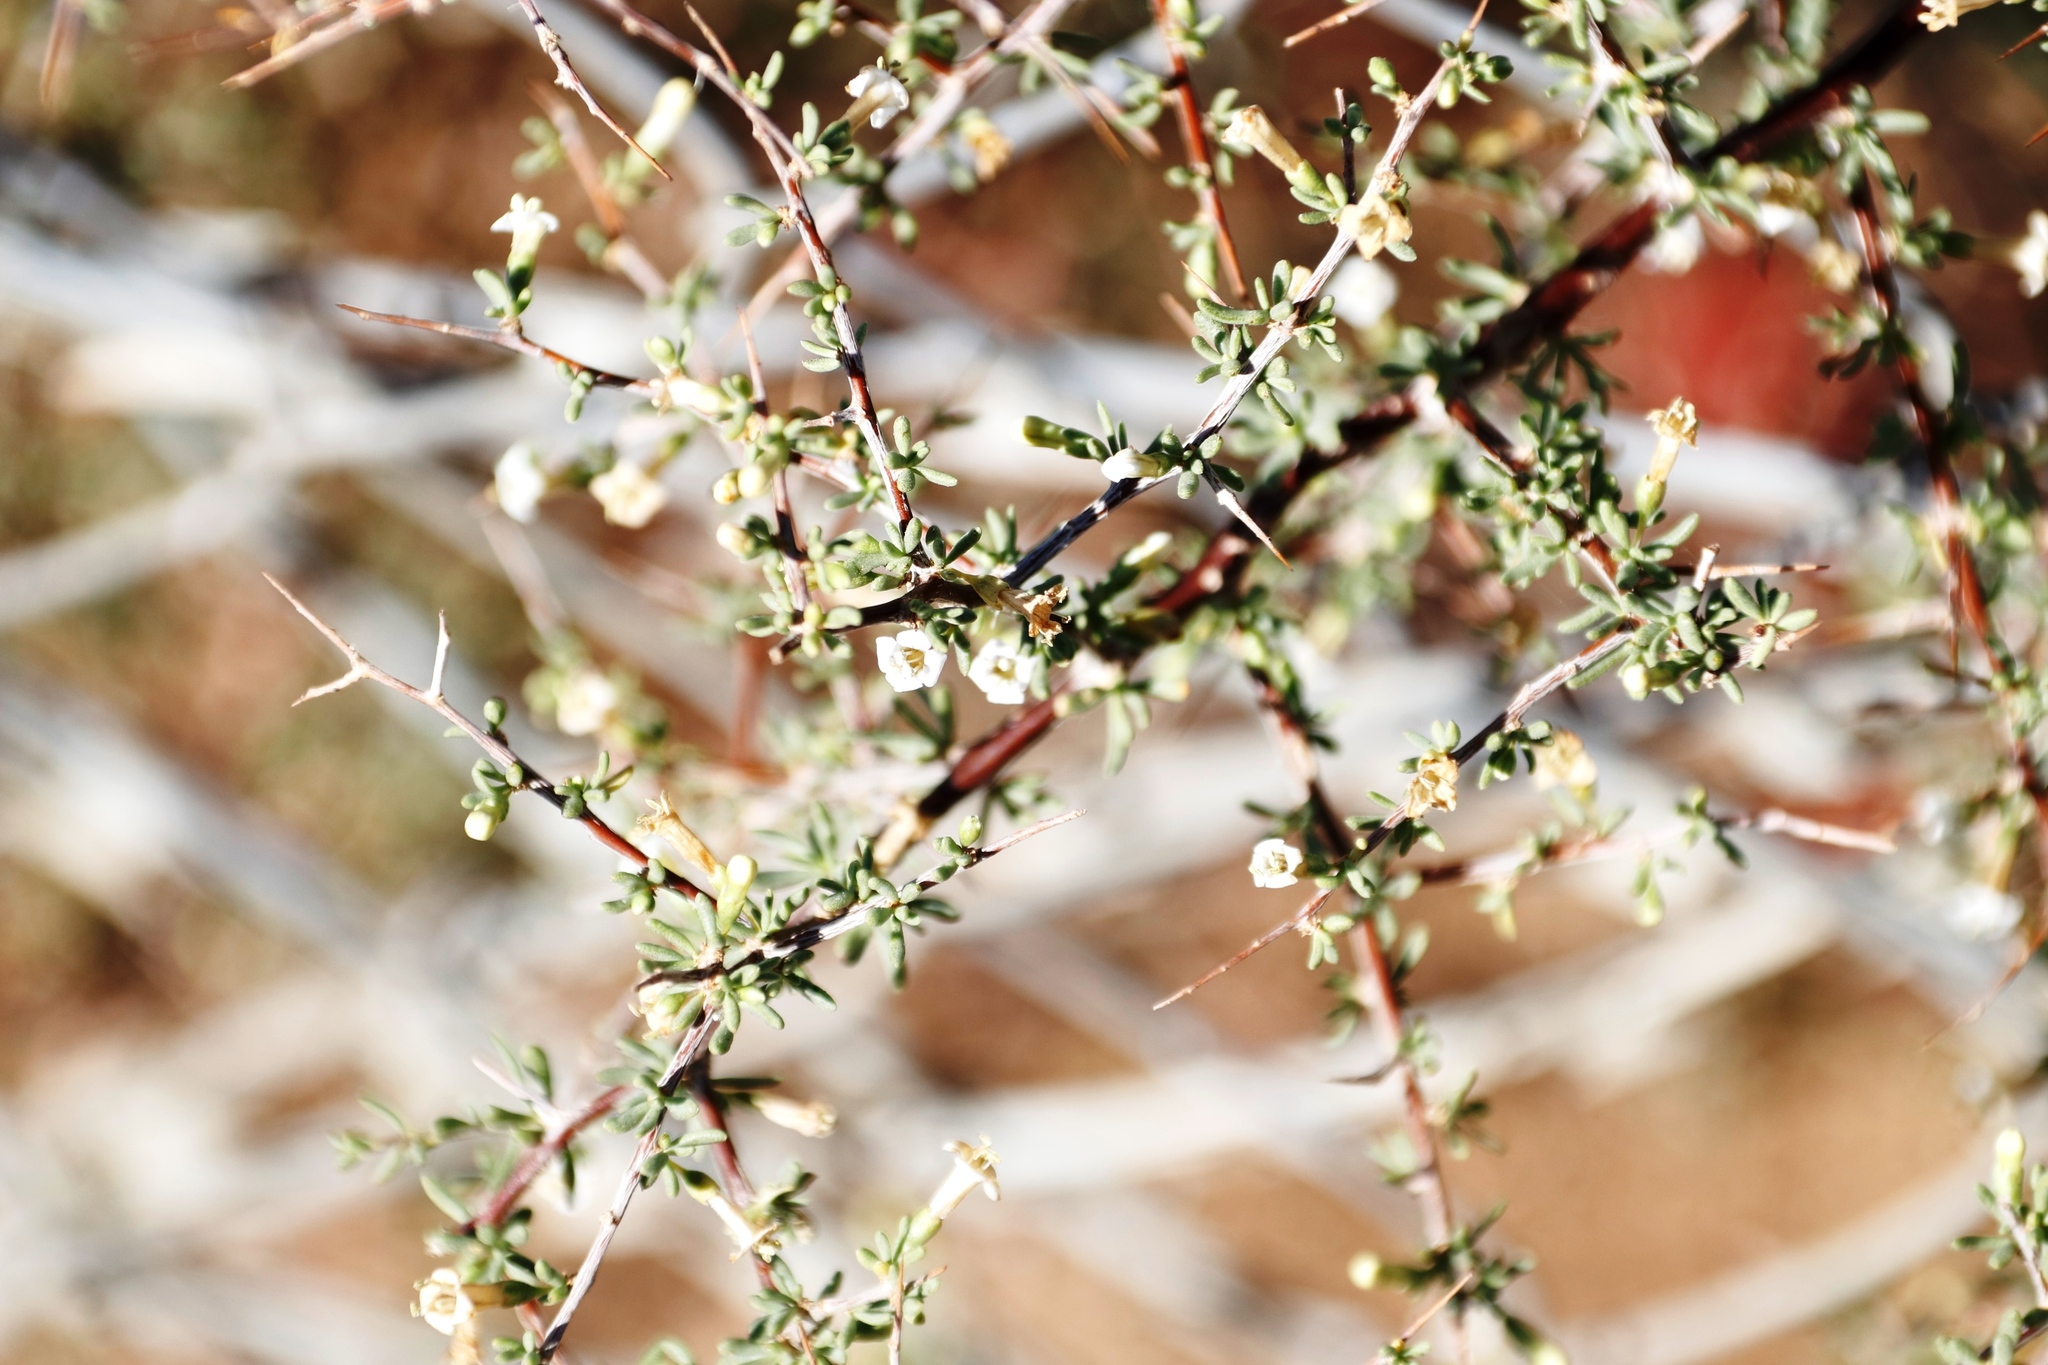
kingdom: Plantae
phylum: Tracheophyta
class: Magnoliopsida
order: Solanales
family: Solanaceae
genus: Lycium
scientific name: Lycium horridum
